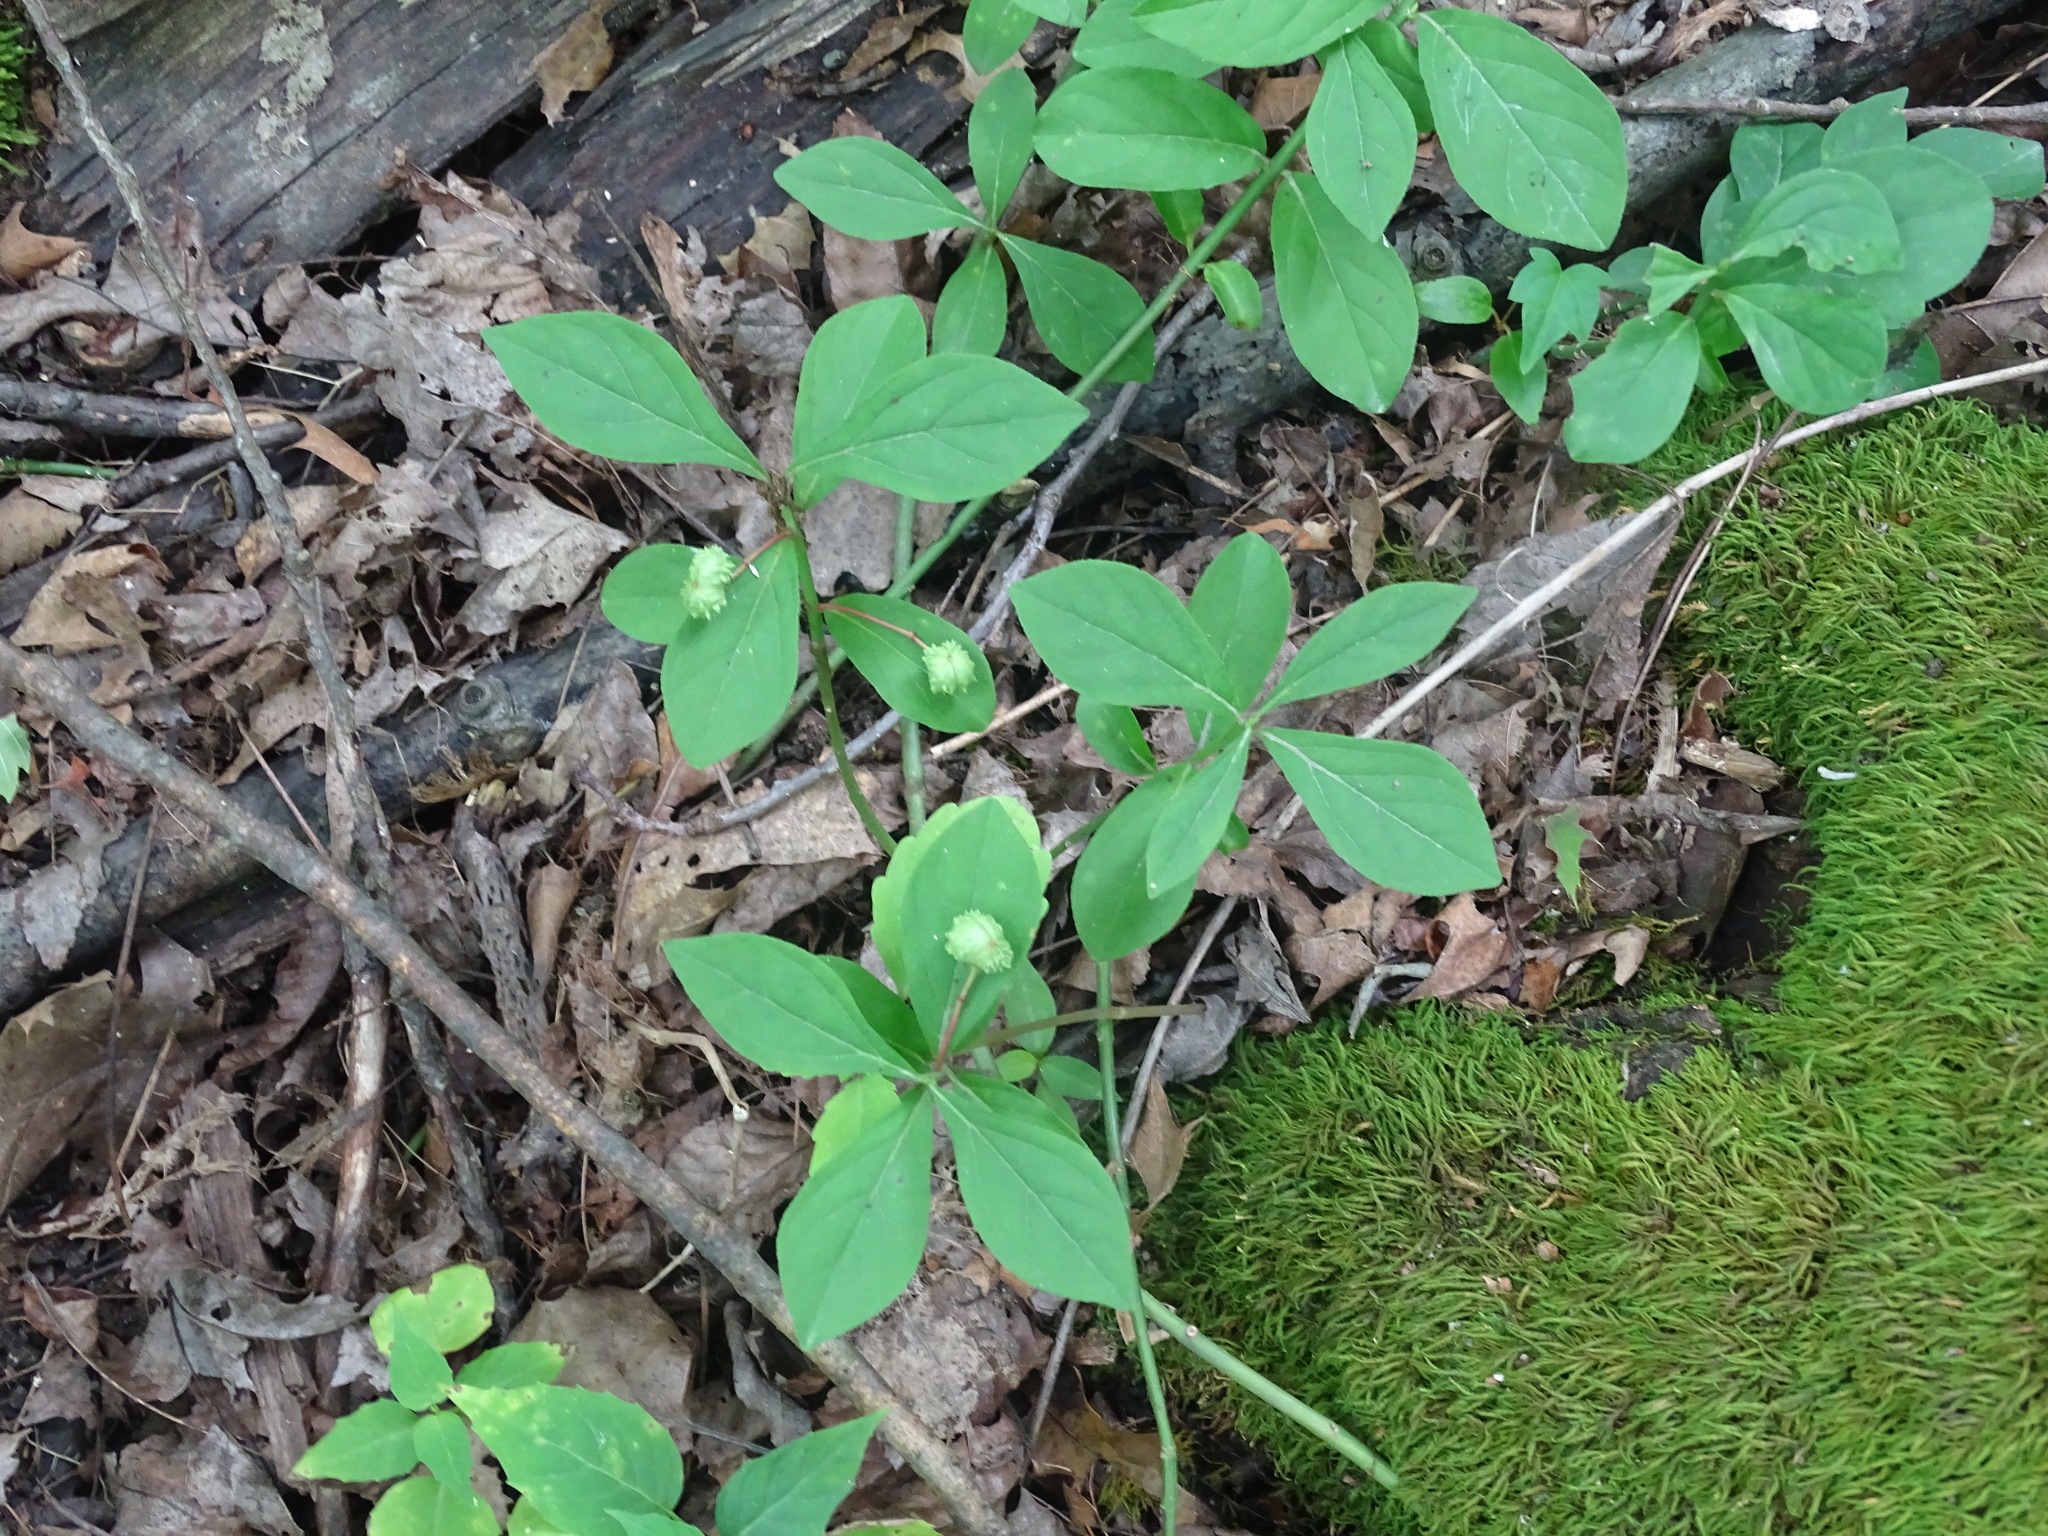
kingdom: Plantae
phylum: Tracheophyta
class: Magnoliopsida
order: Celastrales
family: Celastraceae
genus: Euonymus
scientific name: Euonymus obovatus
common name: Running strawberry-bush
